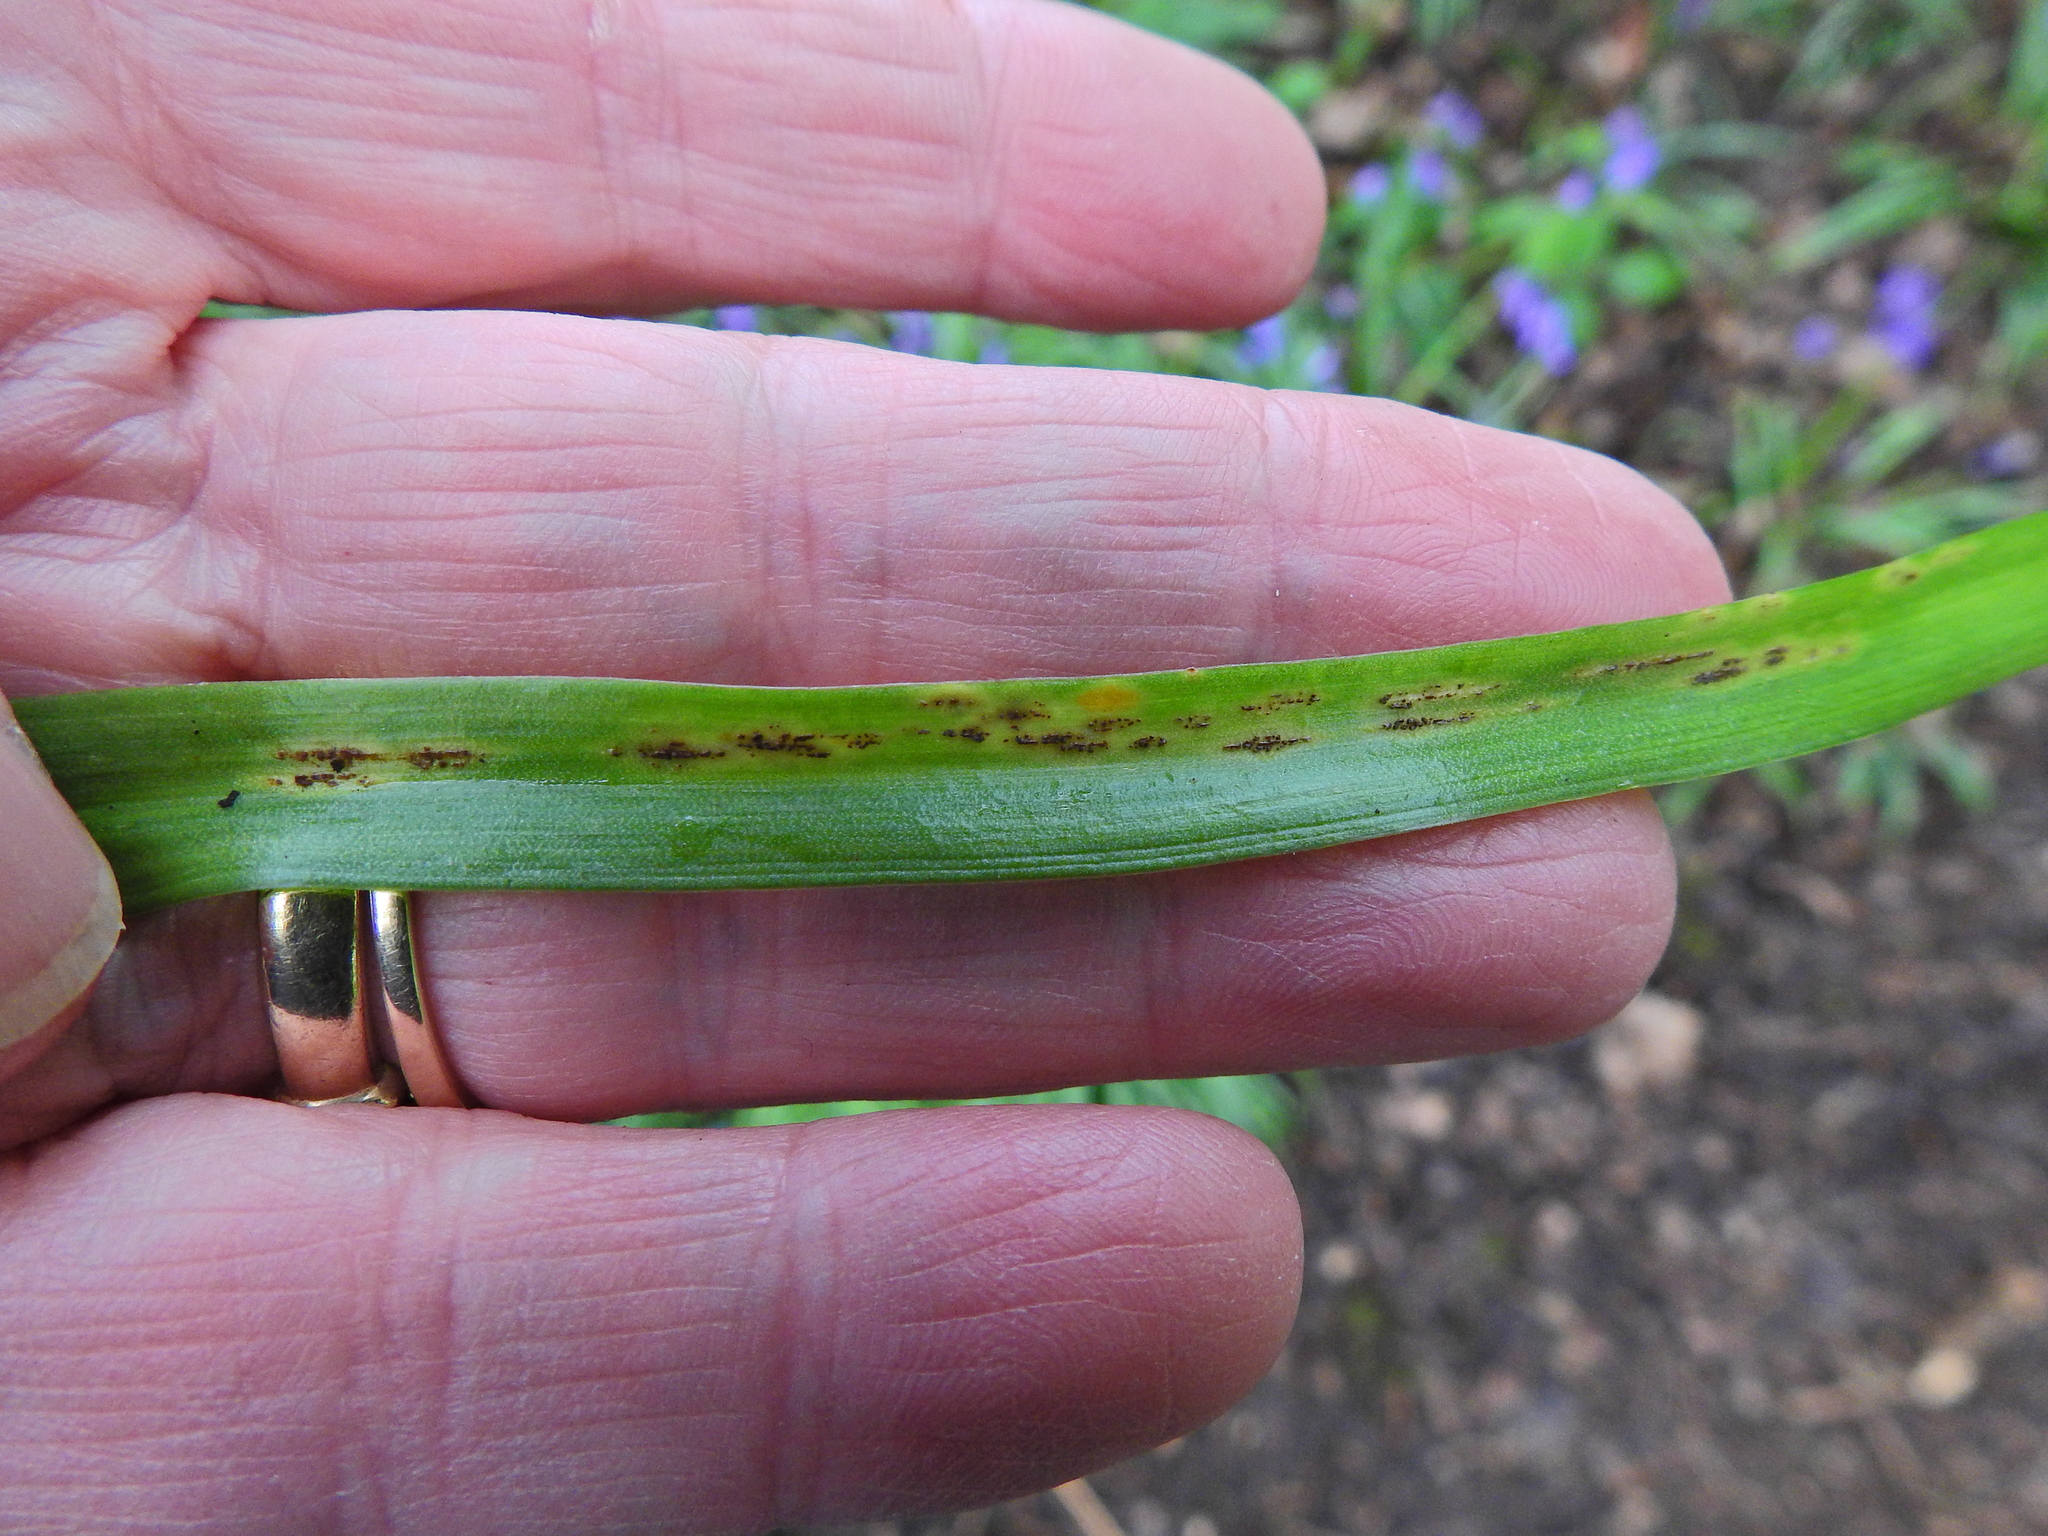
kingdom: Fungi
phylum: Basidiomycota
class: Pucciniomycetes
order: Pucciniales
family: Pucciniaceae
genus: Uromyces
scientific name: Uromyces hyacinthi
